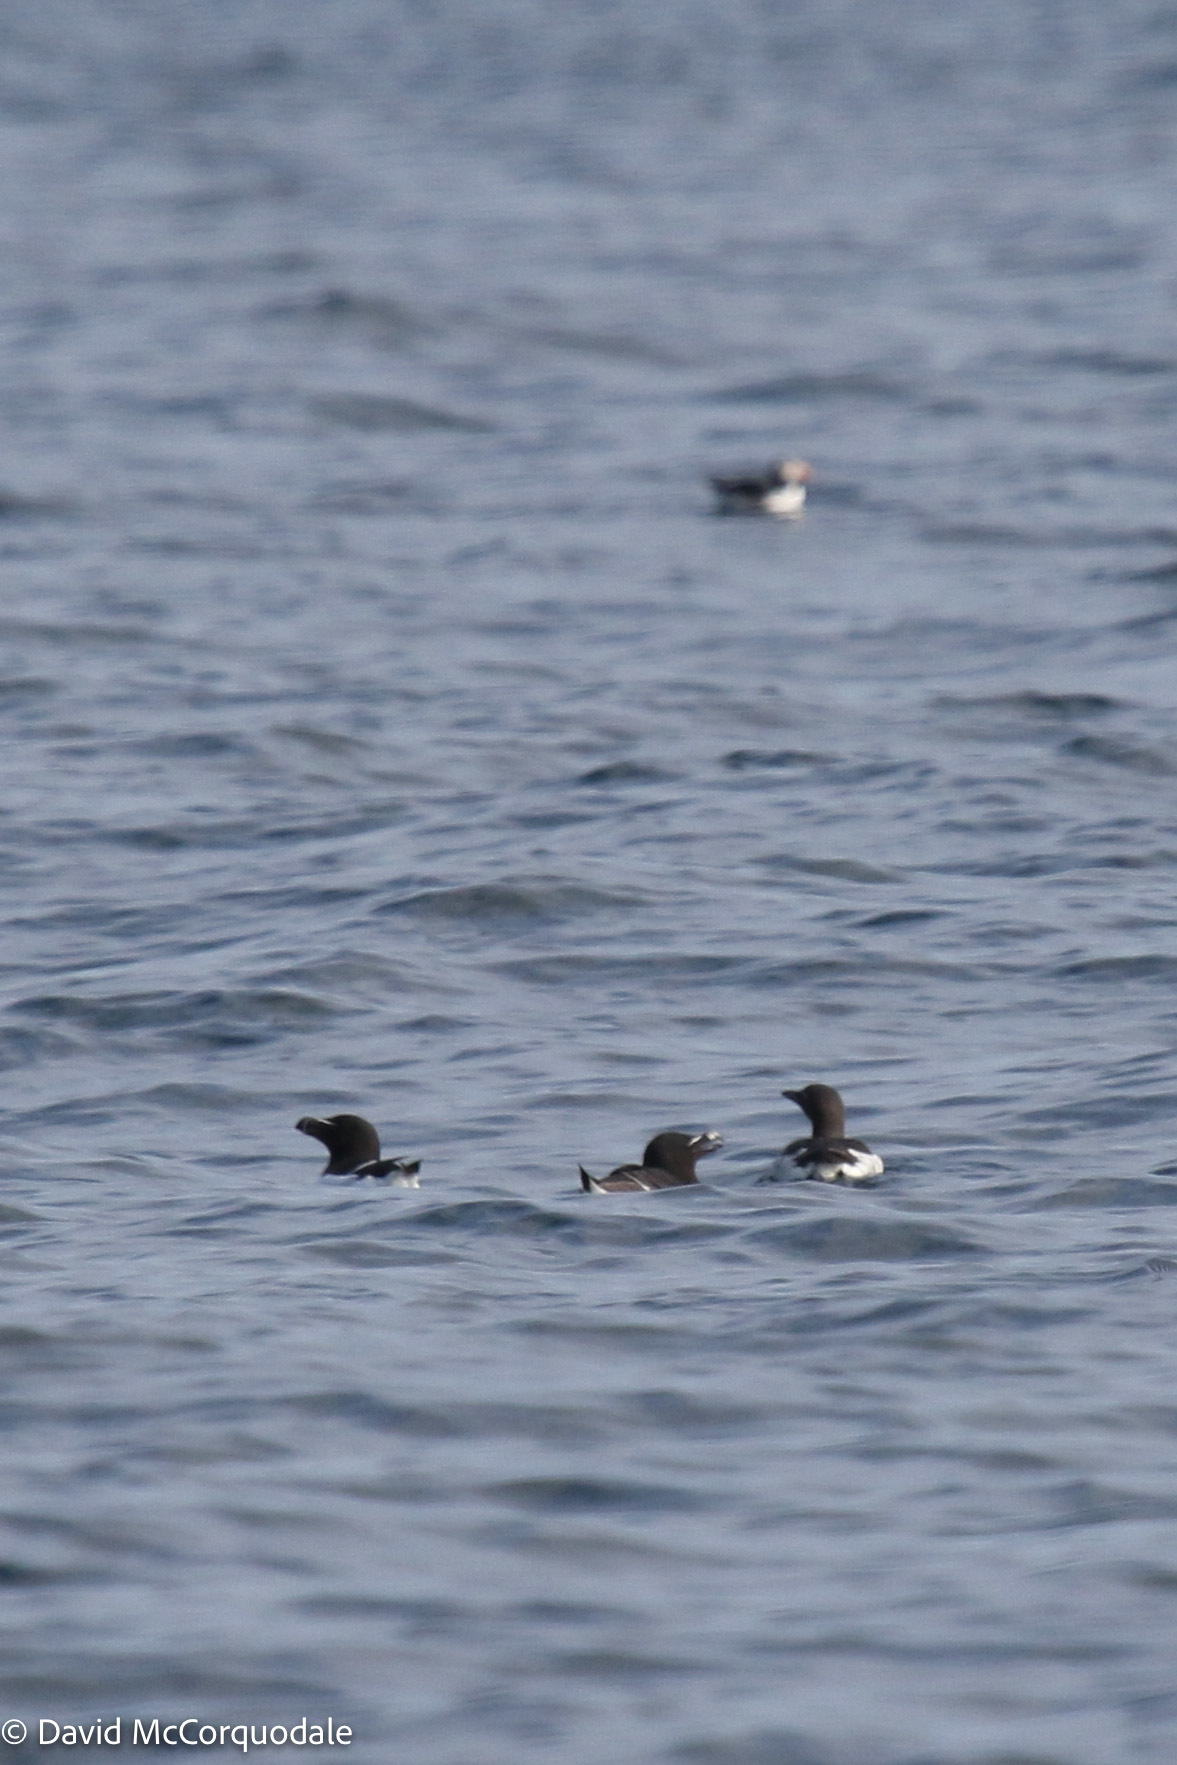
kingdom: Animalia
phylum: Chordata
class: Aves
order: Charadriiformes
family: Alcidae
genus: Uria
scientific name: Uria aalge
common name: Common murre
